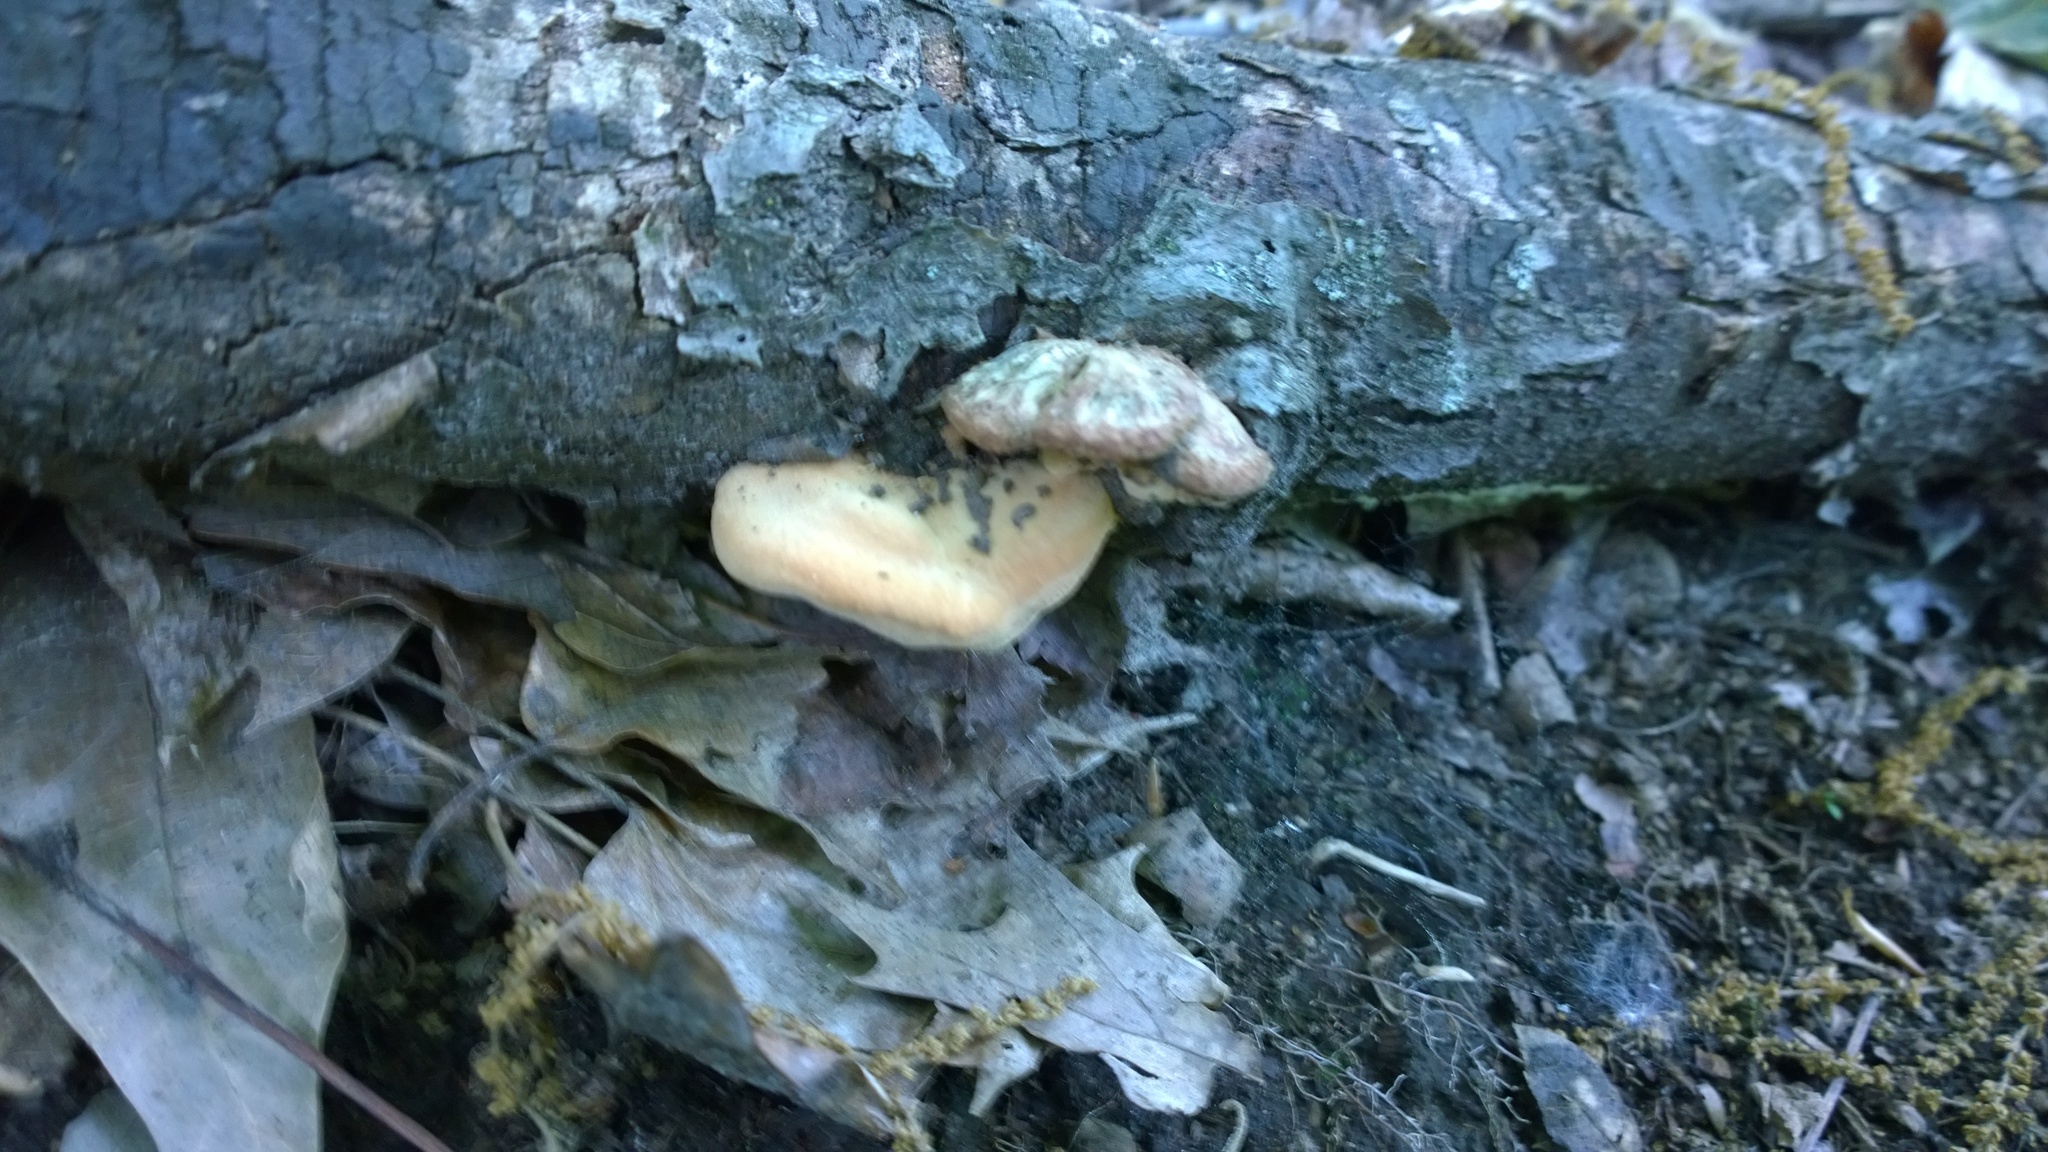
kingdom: Fungi
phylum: Basidiomycota
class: Agaricomycetes
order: Polyporales
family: Phanerochaetaceae
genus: Hapalopilus
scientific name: Hapalopilus rutilans
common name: Tender nesting polypore
